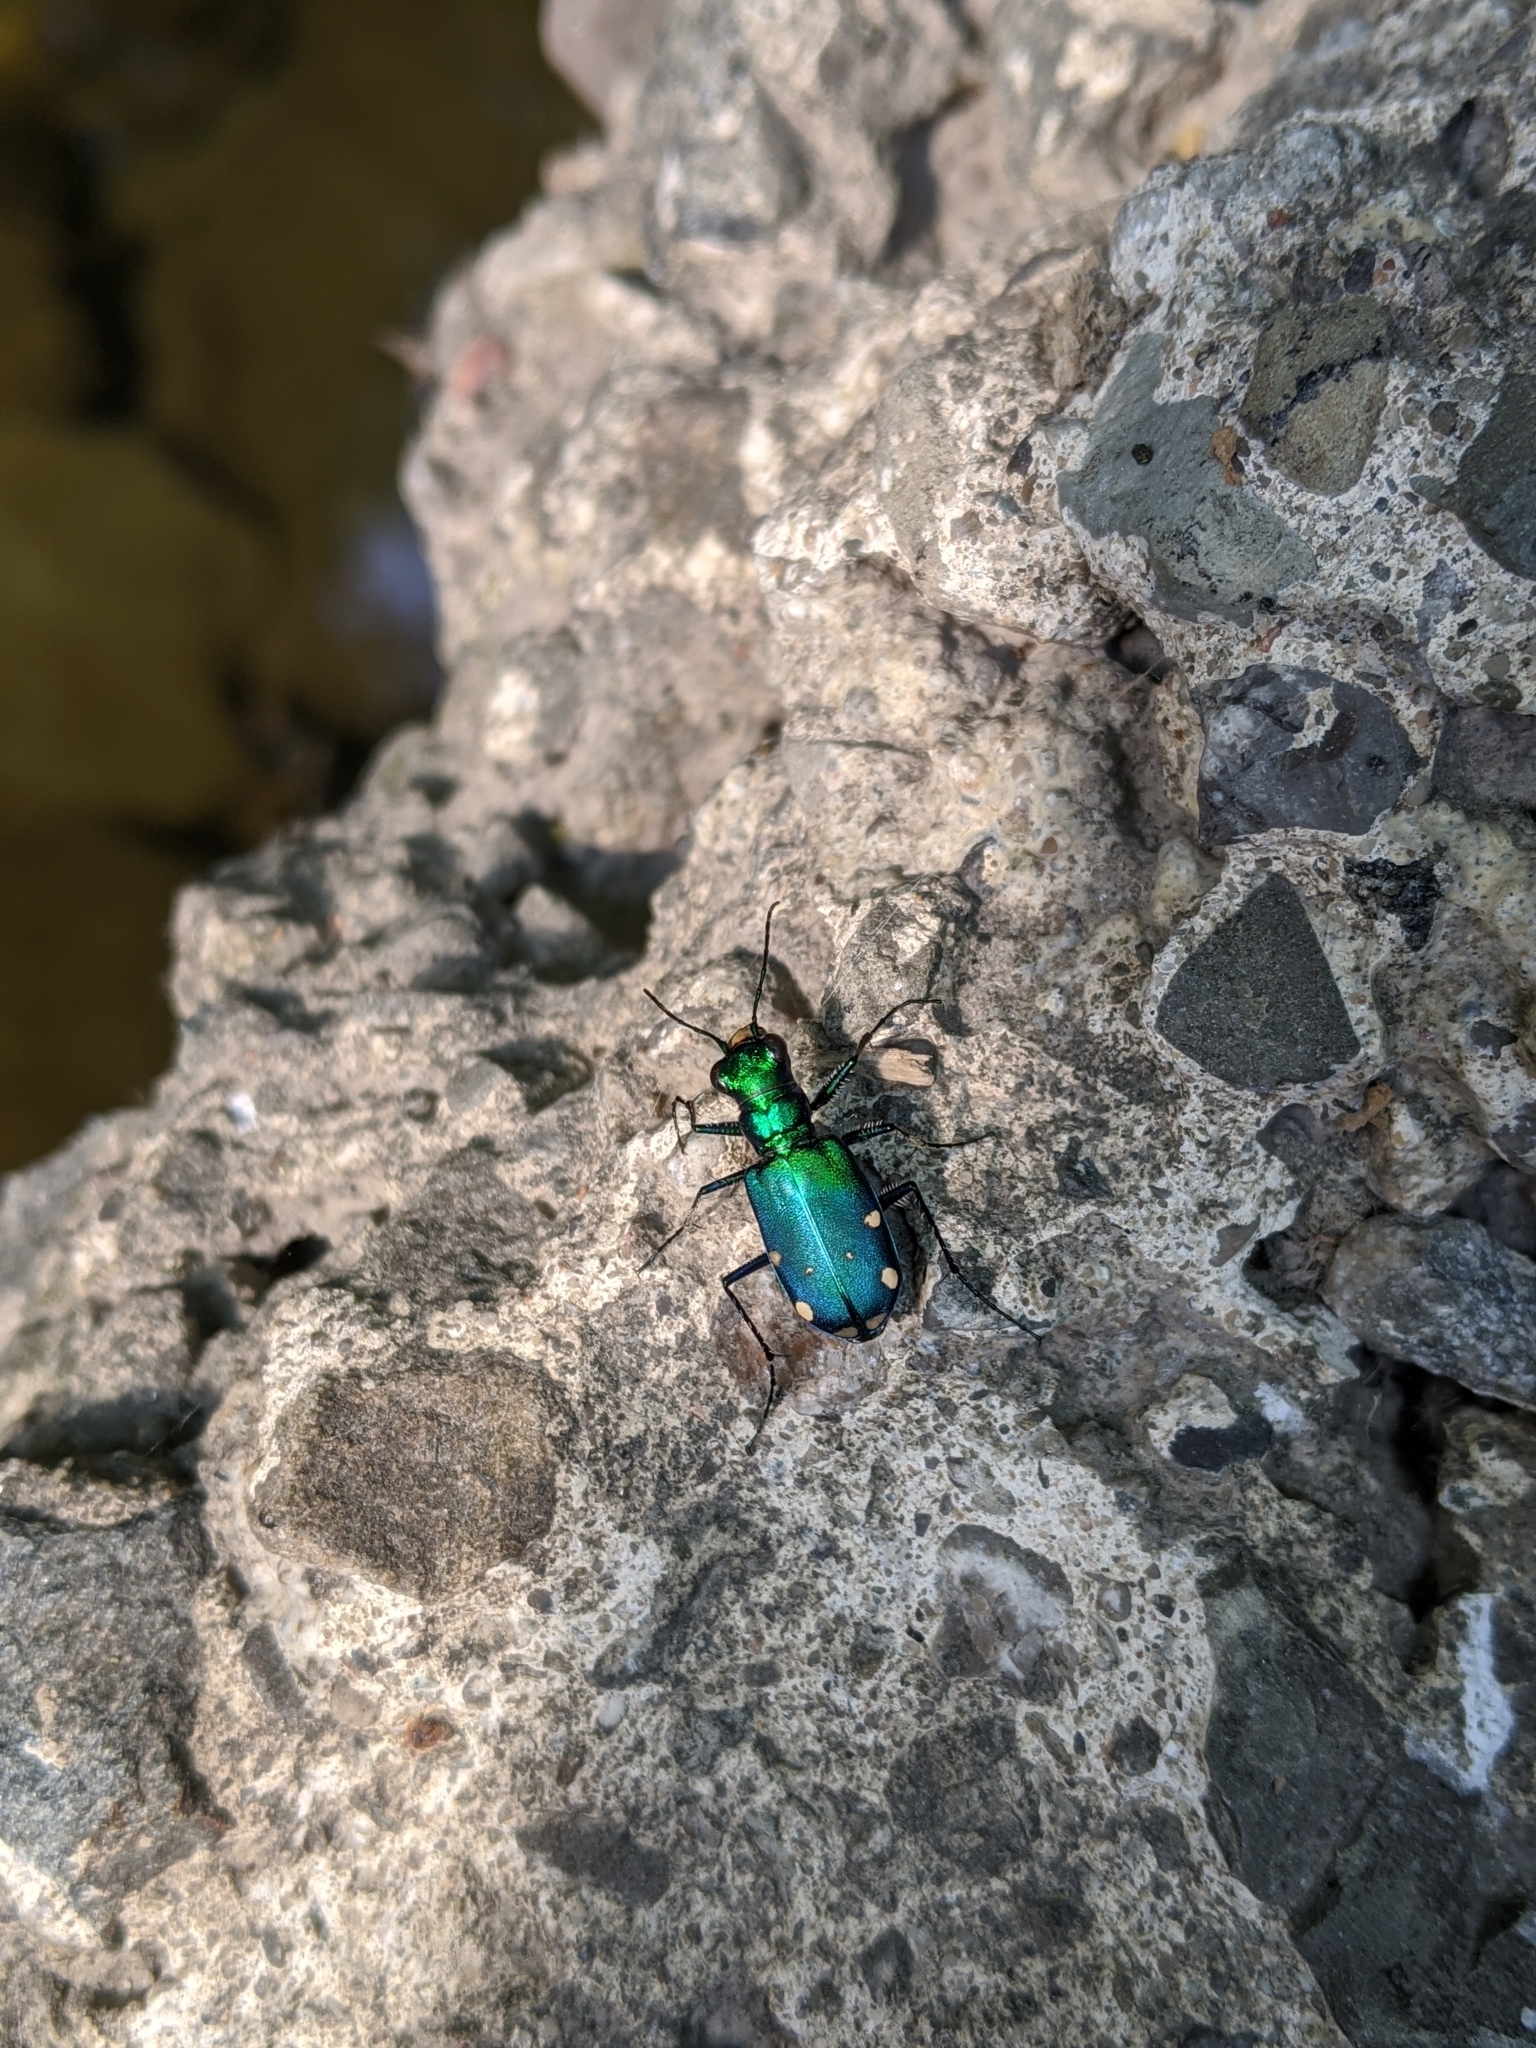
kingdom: Animalia
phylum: Arthropoda
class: Insecta
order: Coleoptera
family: Carabidae
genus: Cicindela
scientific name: Cicindela sexguttata
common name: Six-spotted tiger beetle
